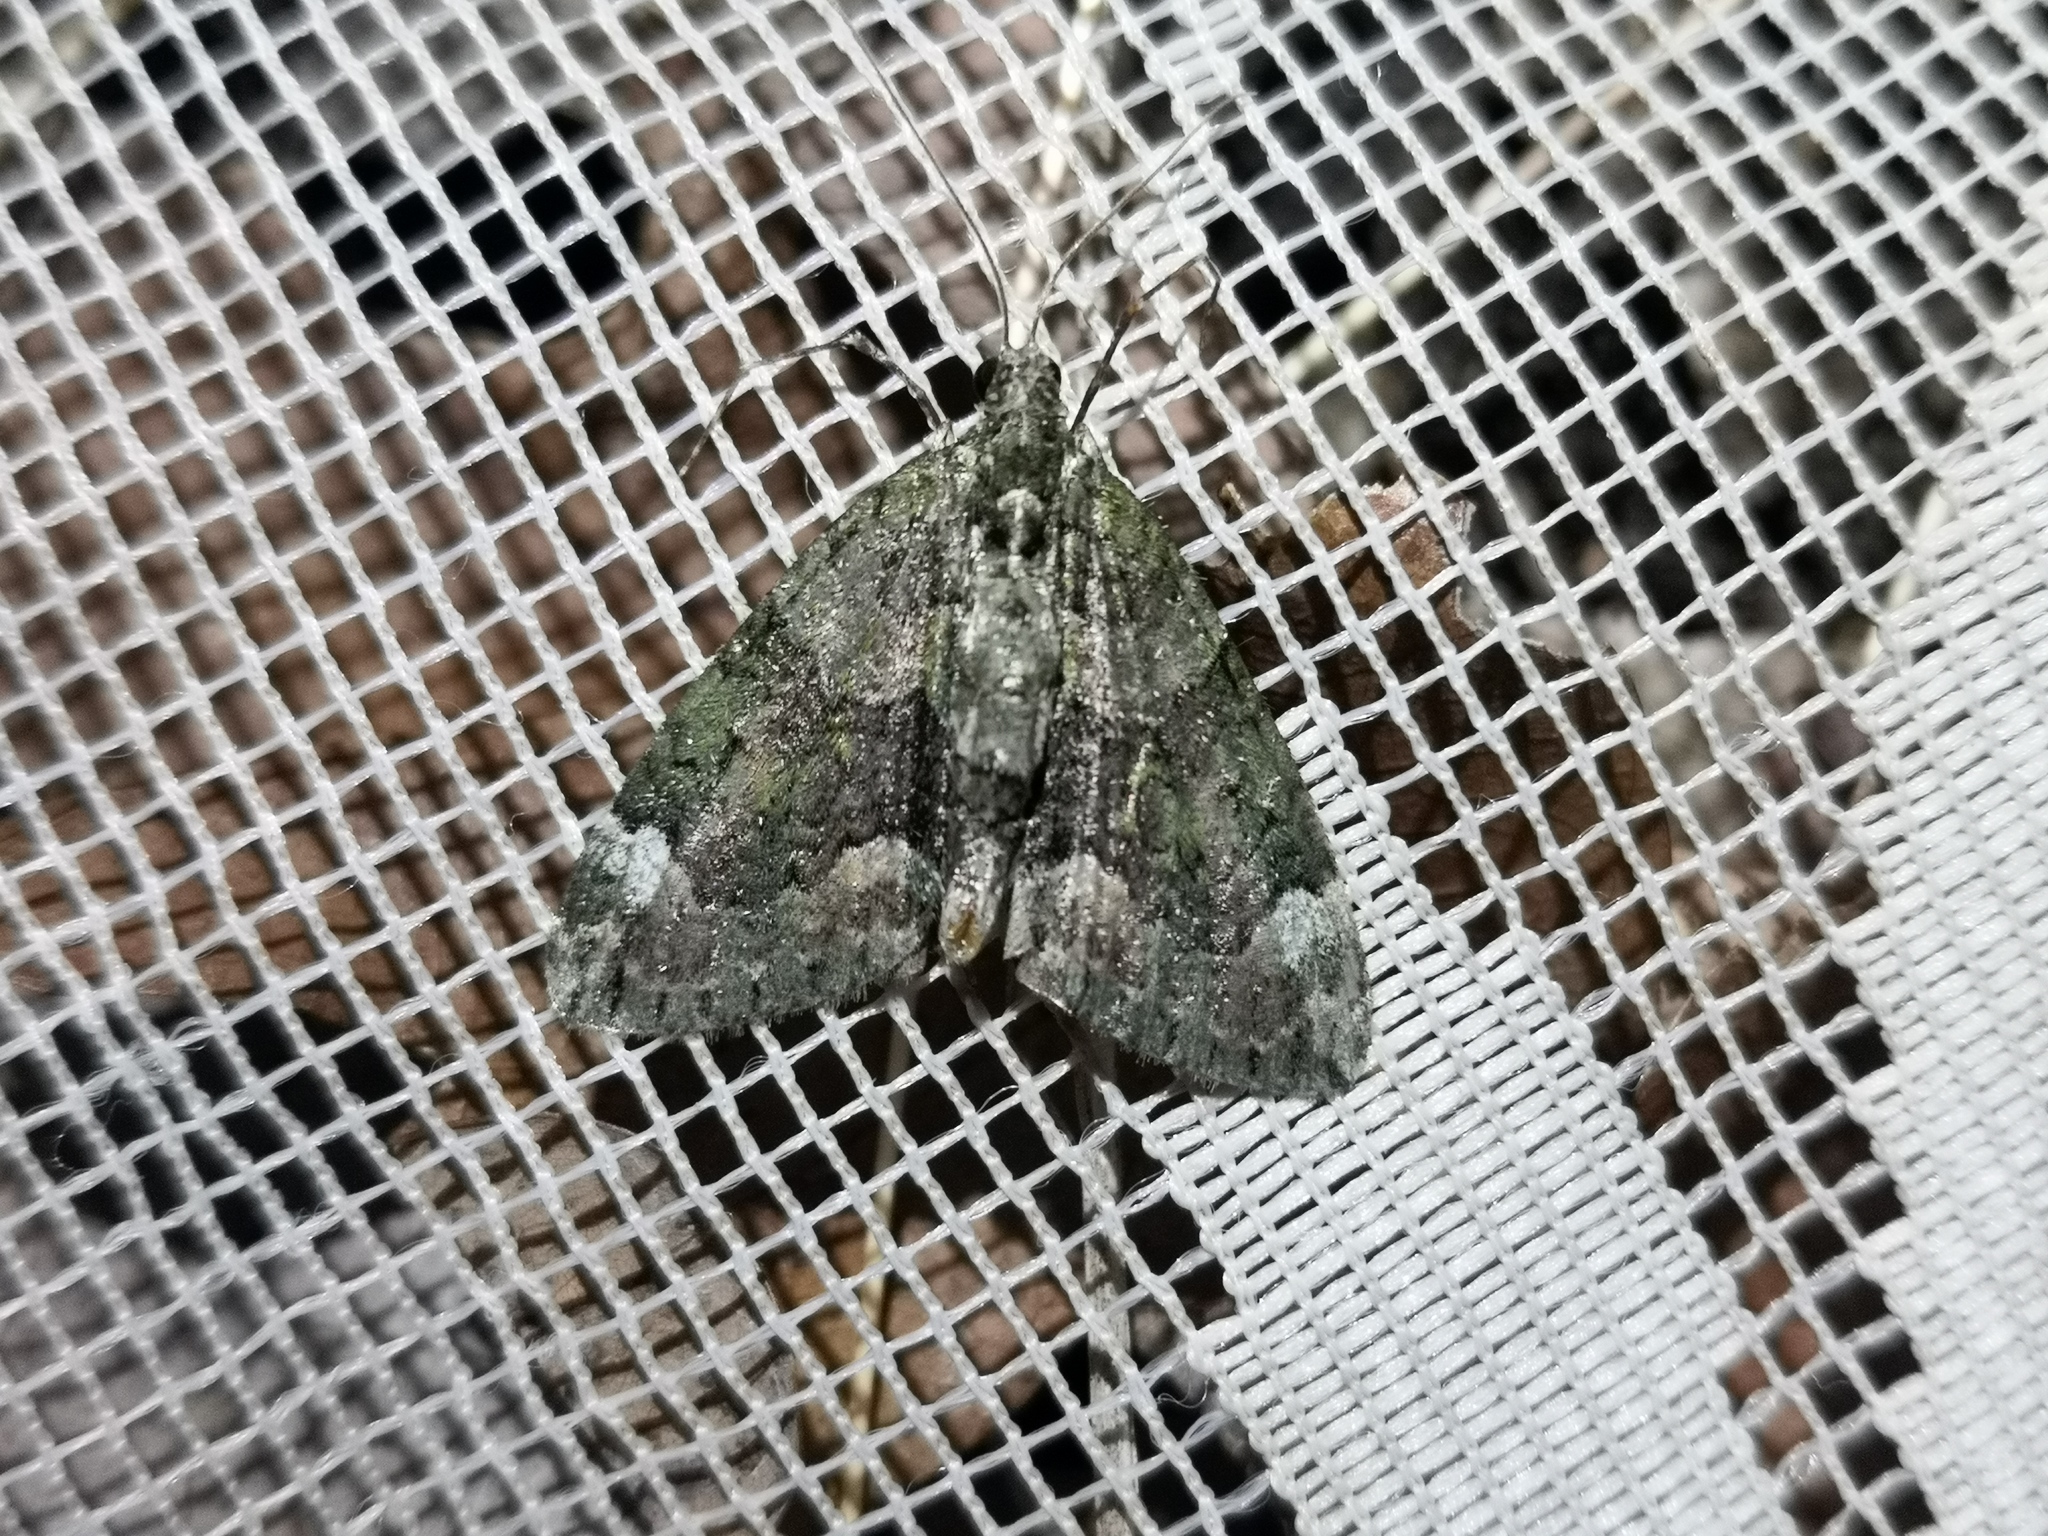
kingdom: Animalia
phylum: Arthropoda
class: Insecta
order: Lepidoptera
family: Geometridae
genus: Chloroclysta
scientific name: Chloroclysta siterata
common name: Red-green carpet
